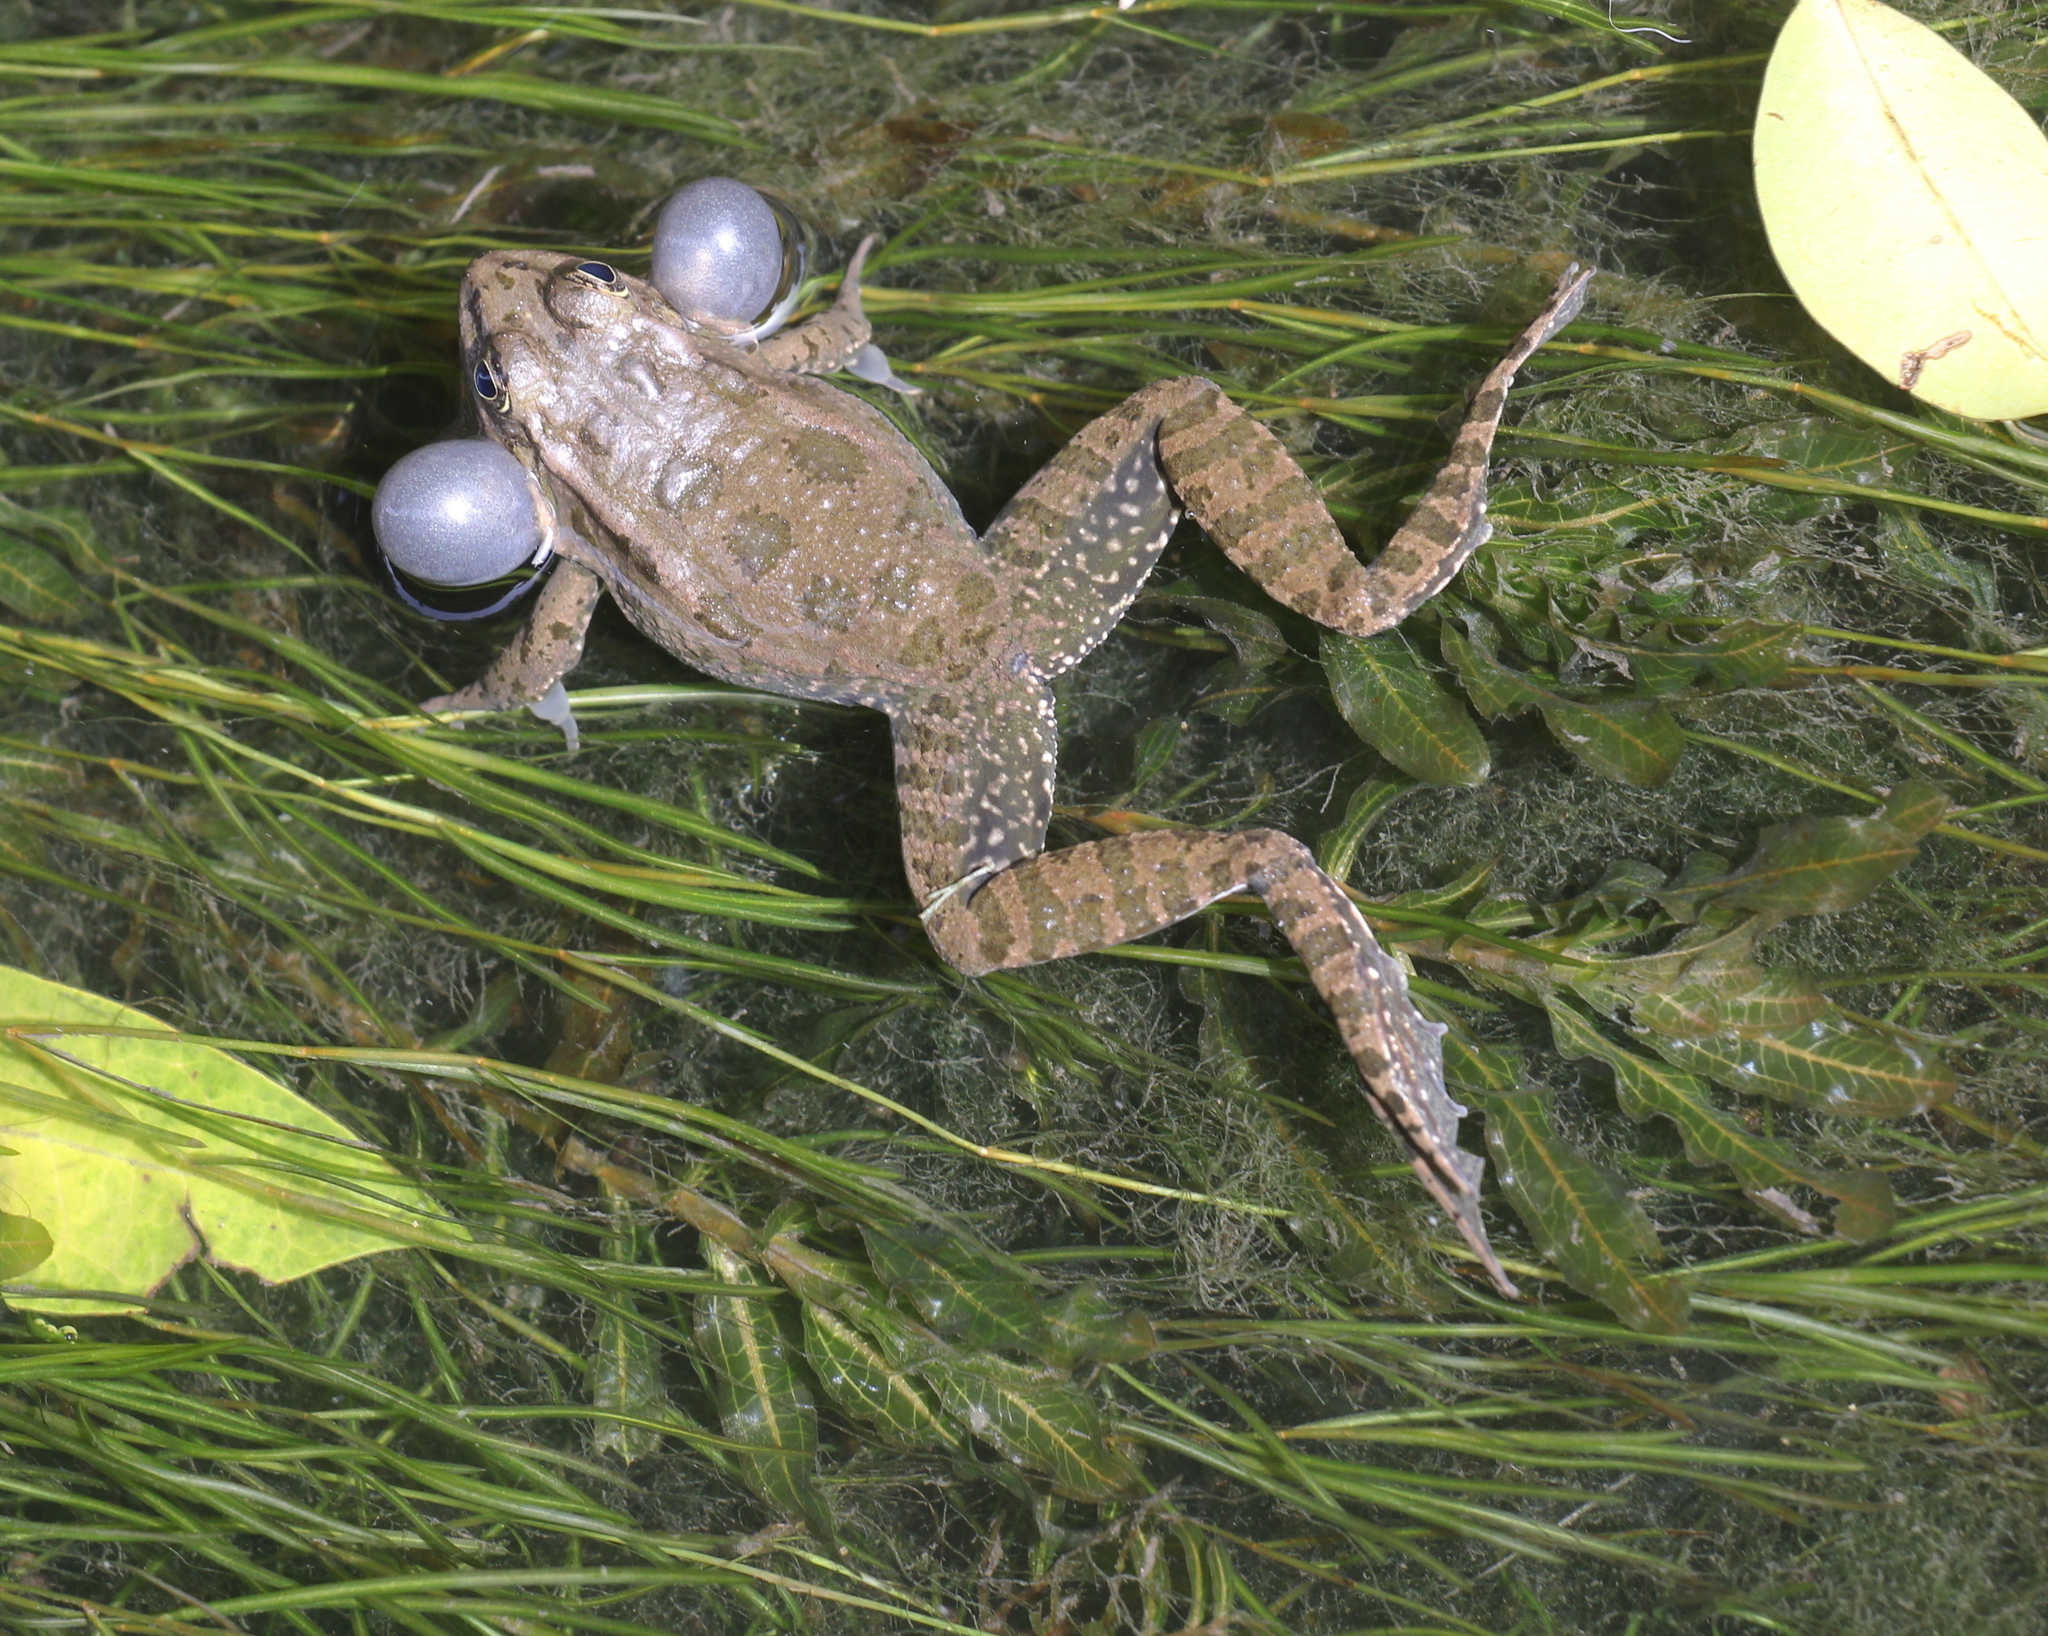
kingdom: Animalia
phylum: Chordata
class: Amphibia
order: Anura
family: Ranidae
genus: Pelophylax
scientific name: Pelophylax ridibundus
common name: Marsh frog
